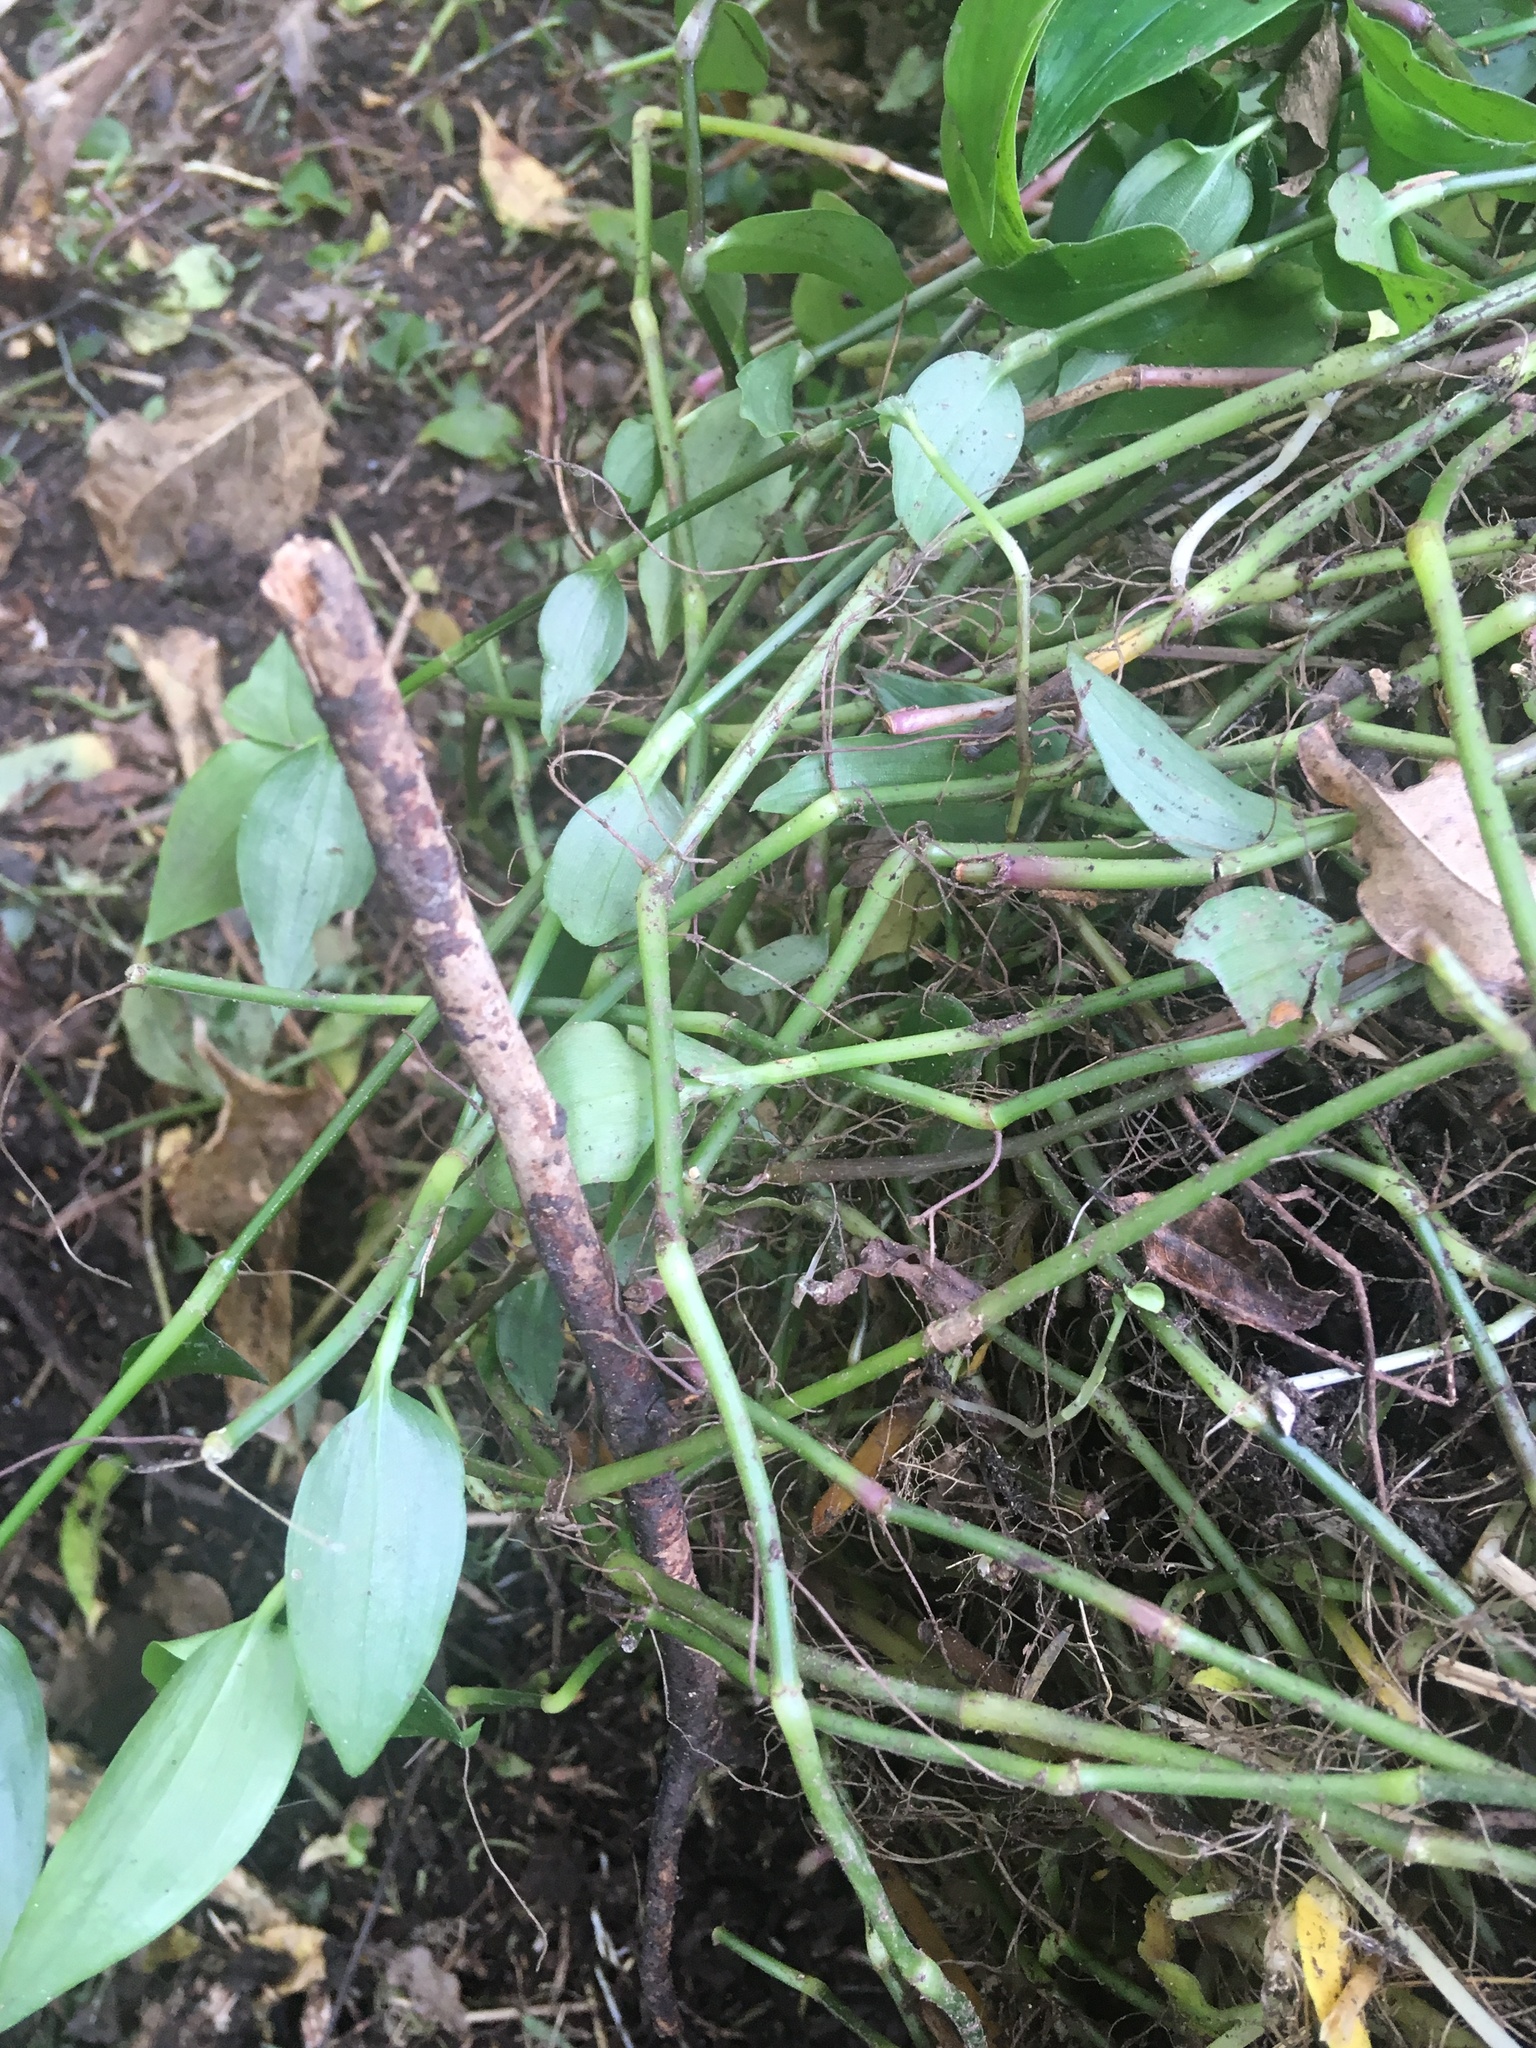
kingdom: Plantae
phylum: Tracheophyta
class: Liliopsida
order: Commelinales
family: Commelinaceae
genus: Tradescantia
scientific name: Tradescantia fluminensis
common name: Wandering-jew
